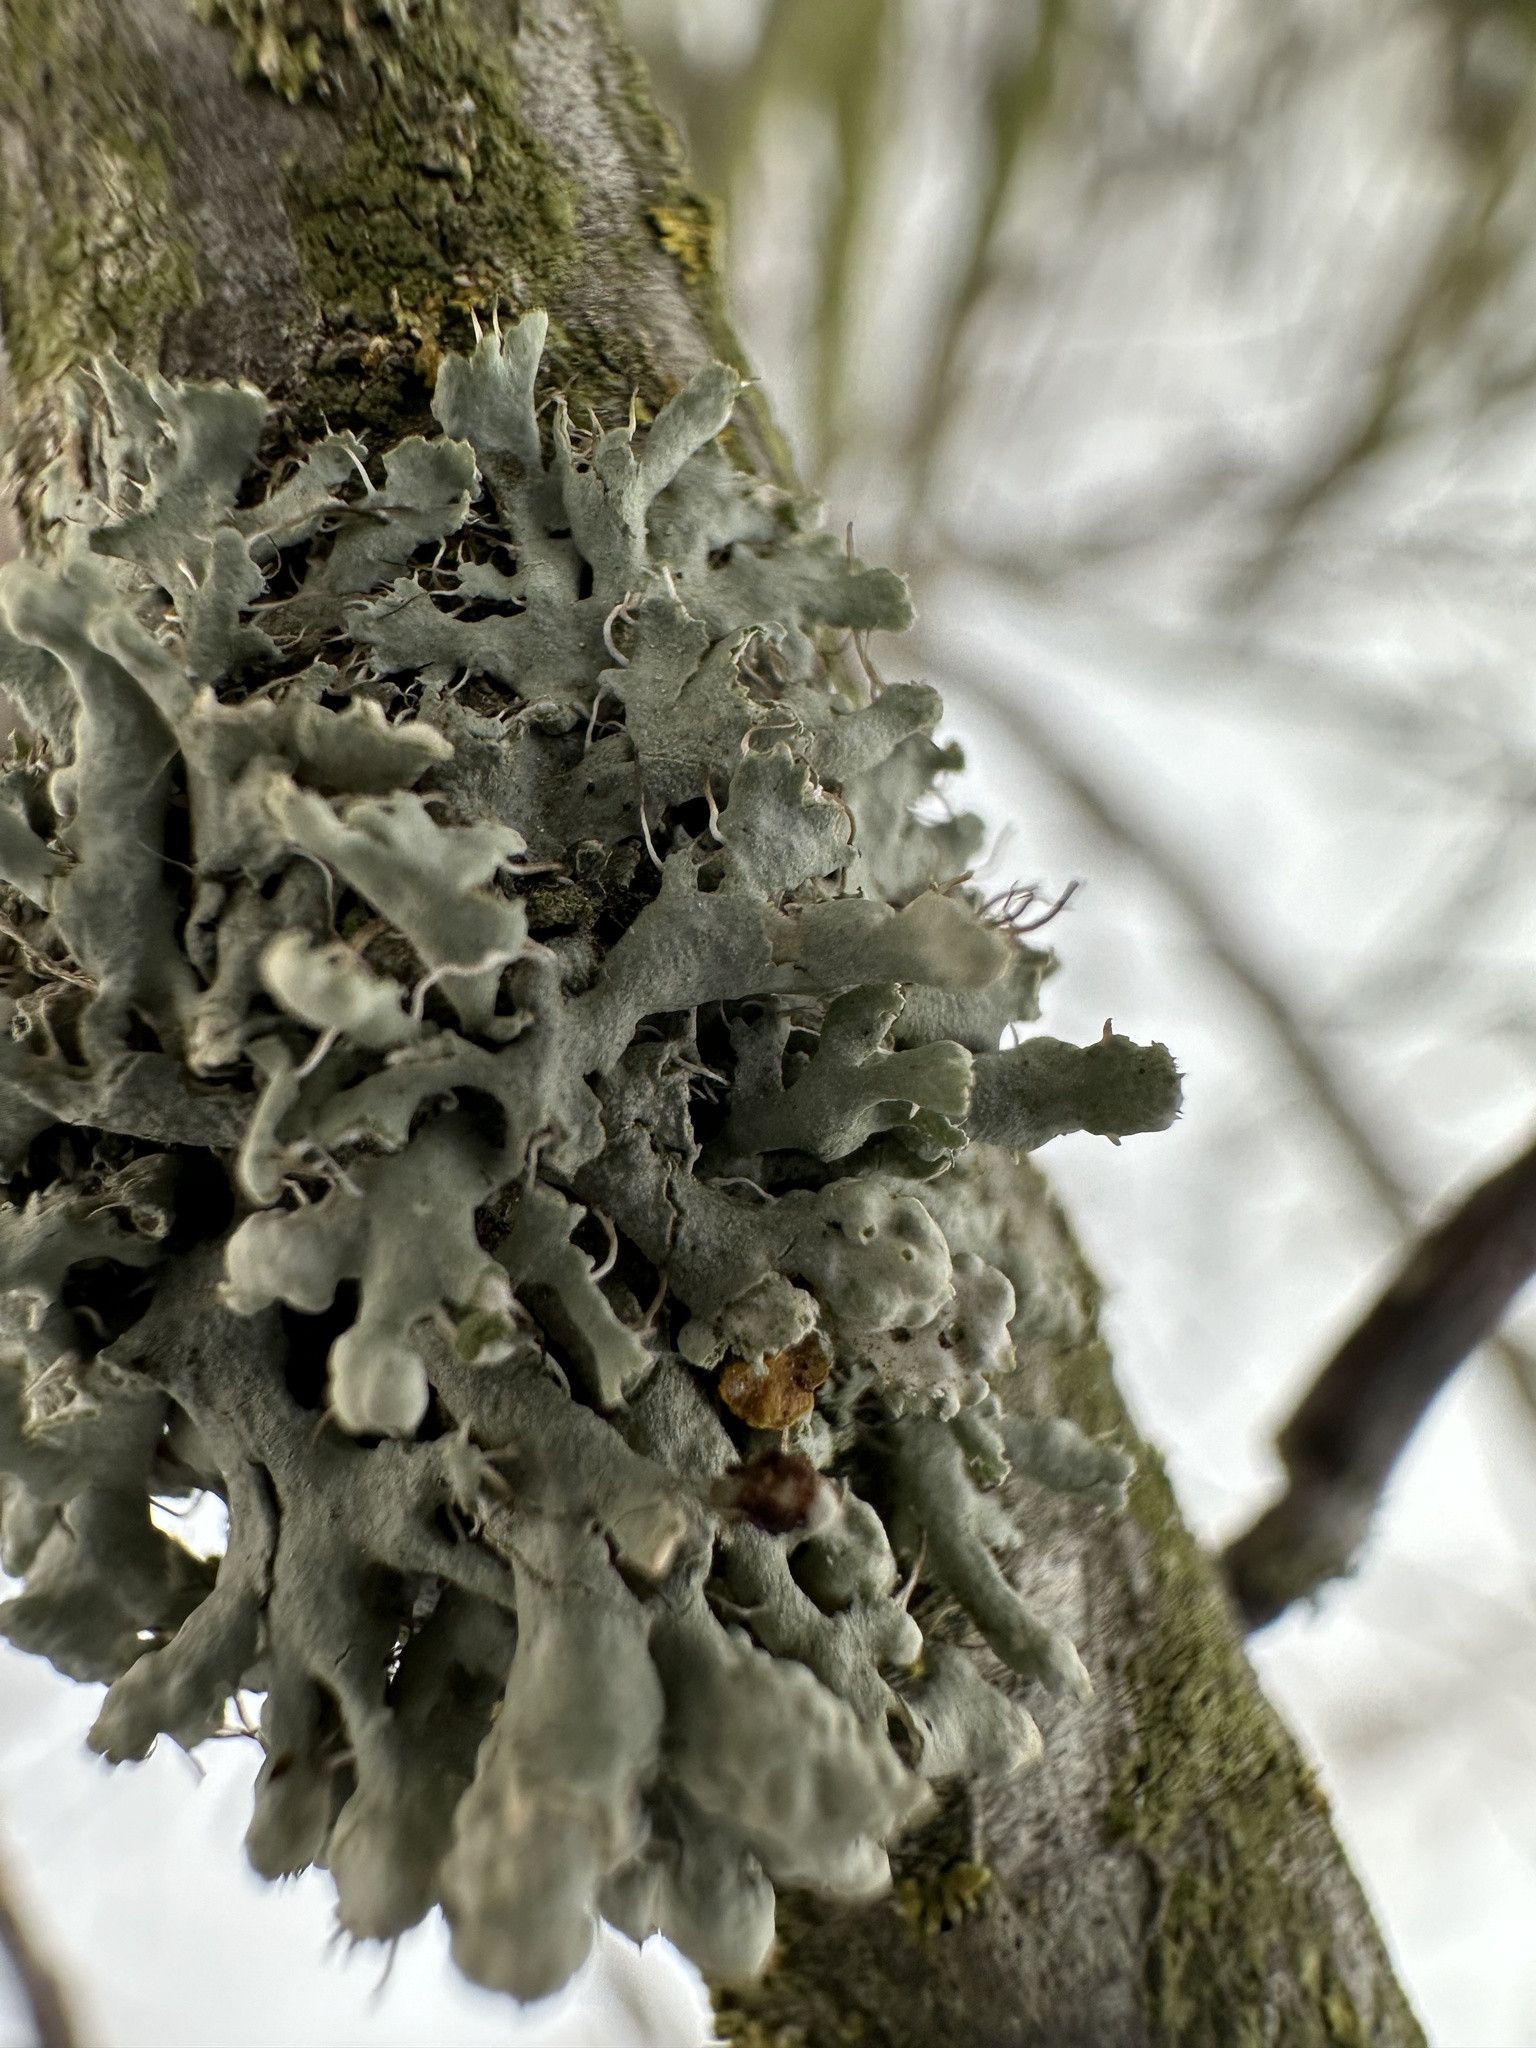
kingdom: Fungi
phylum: Ascomycota
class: Lecanoromycetes
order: Caliciales
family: Physciaceae
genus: Physcia
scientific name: Physcia adscendens
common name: Hooded rosette lichen
